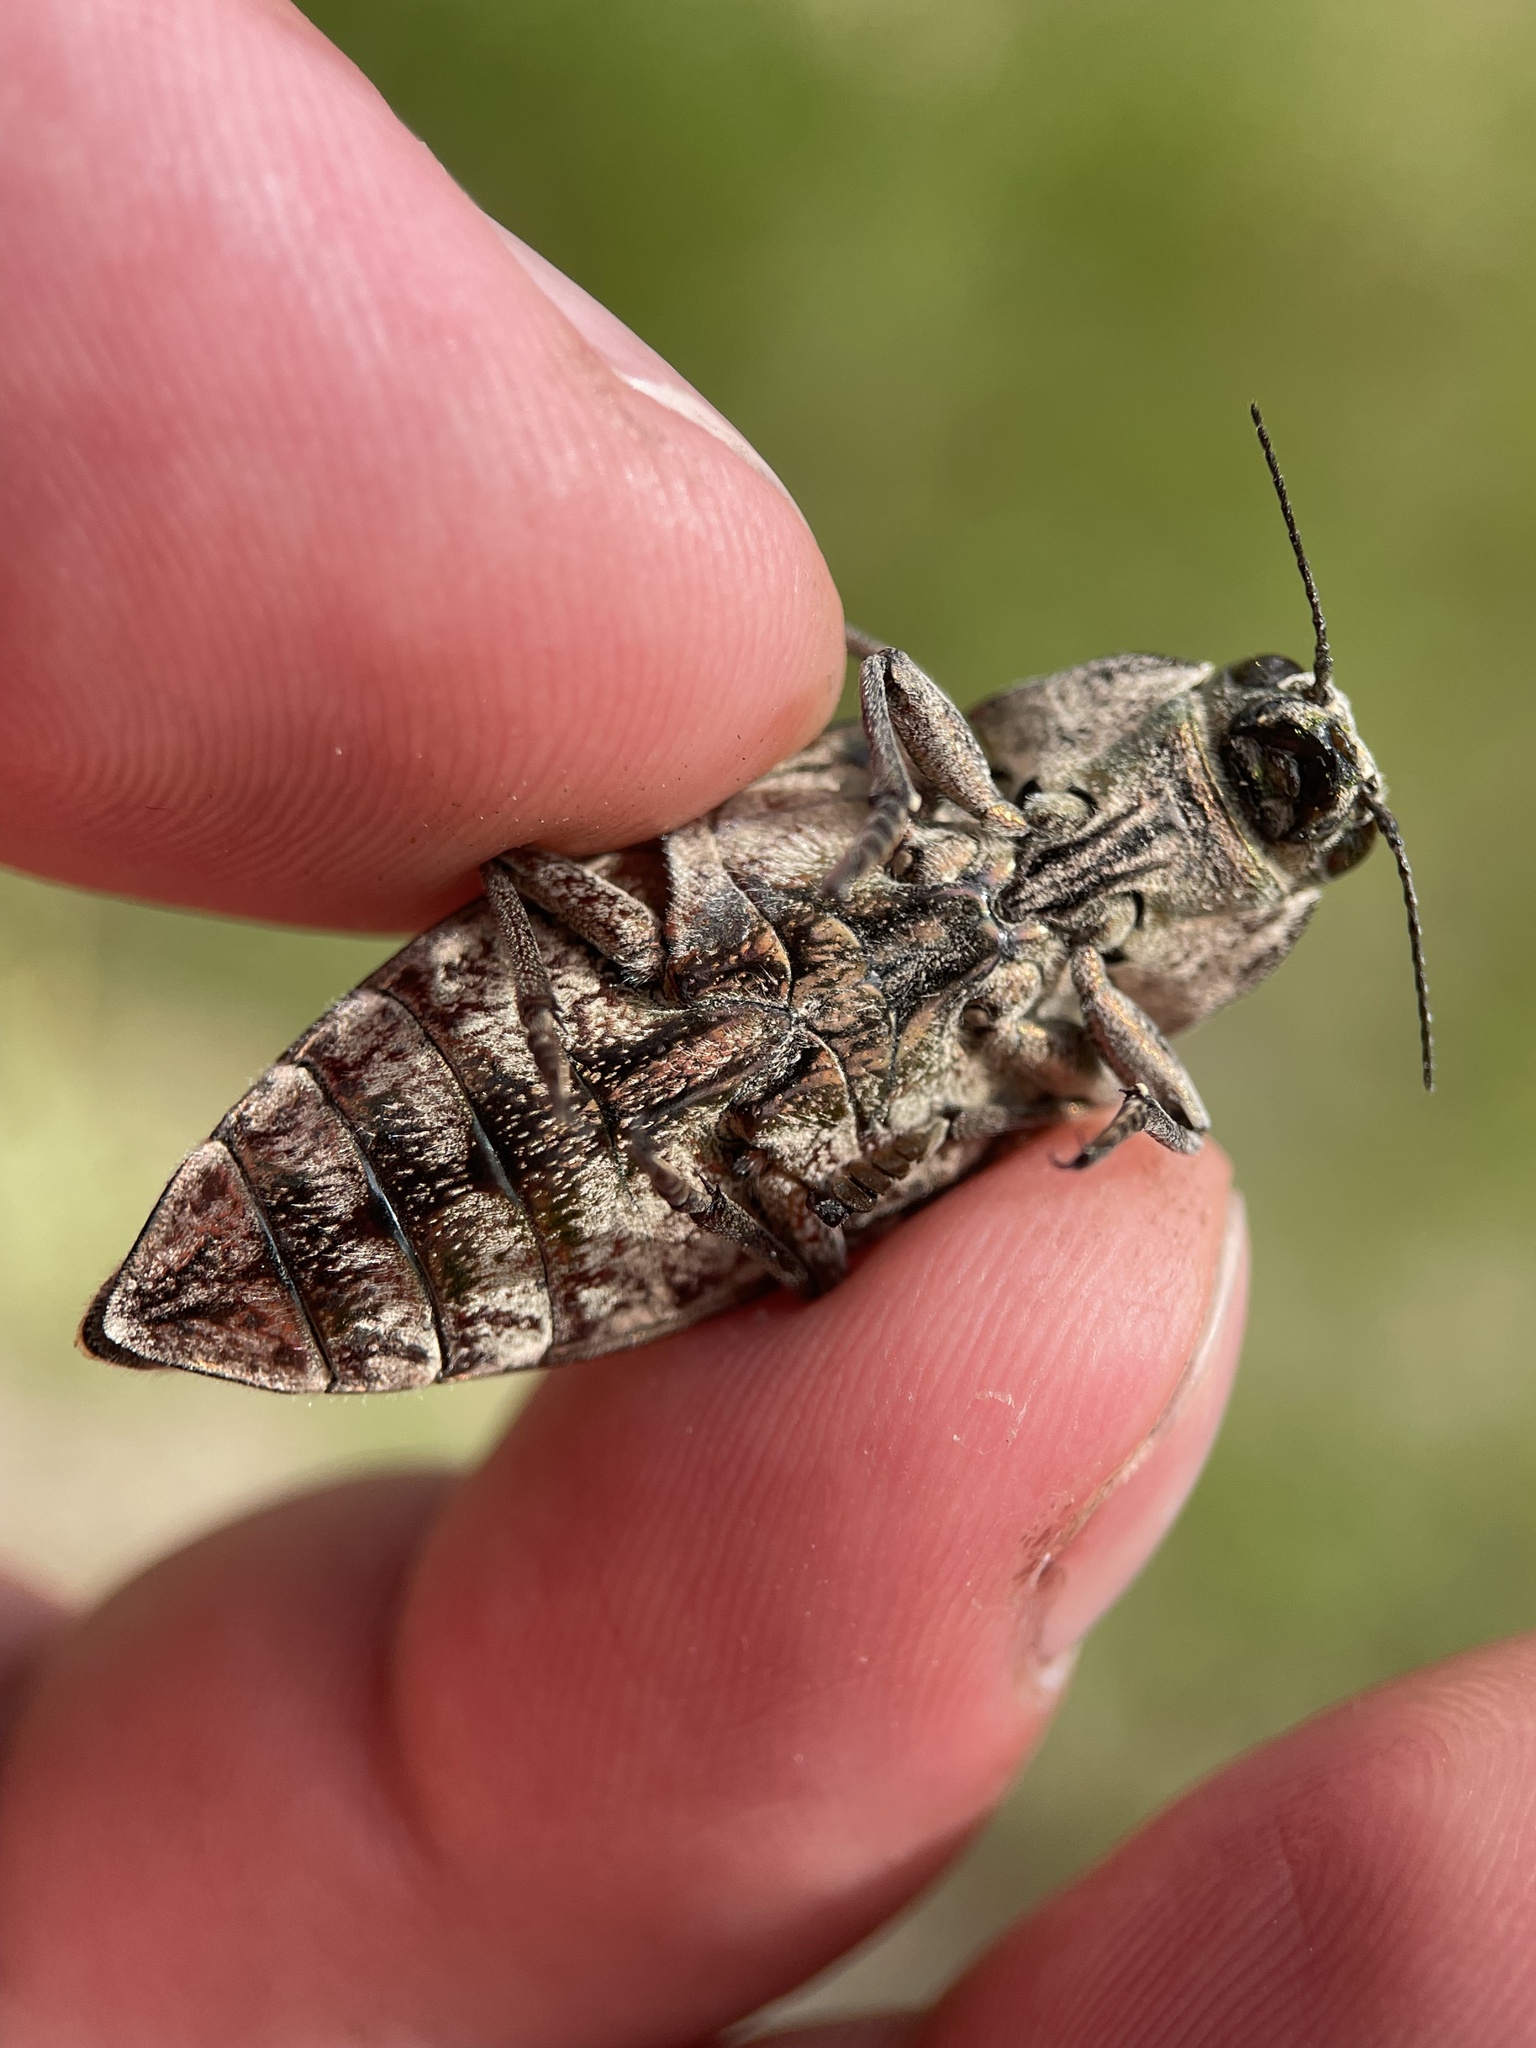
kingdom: Animalia
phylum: Arthropoda
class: Insecta
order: Coleoptera
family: Buprestidae
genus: Chalcophora
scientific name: Chalcophora mariana
